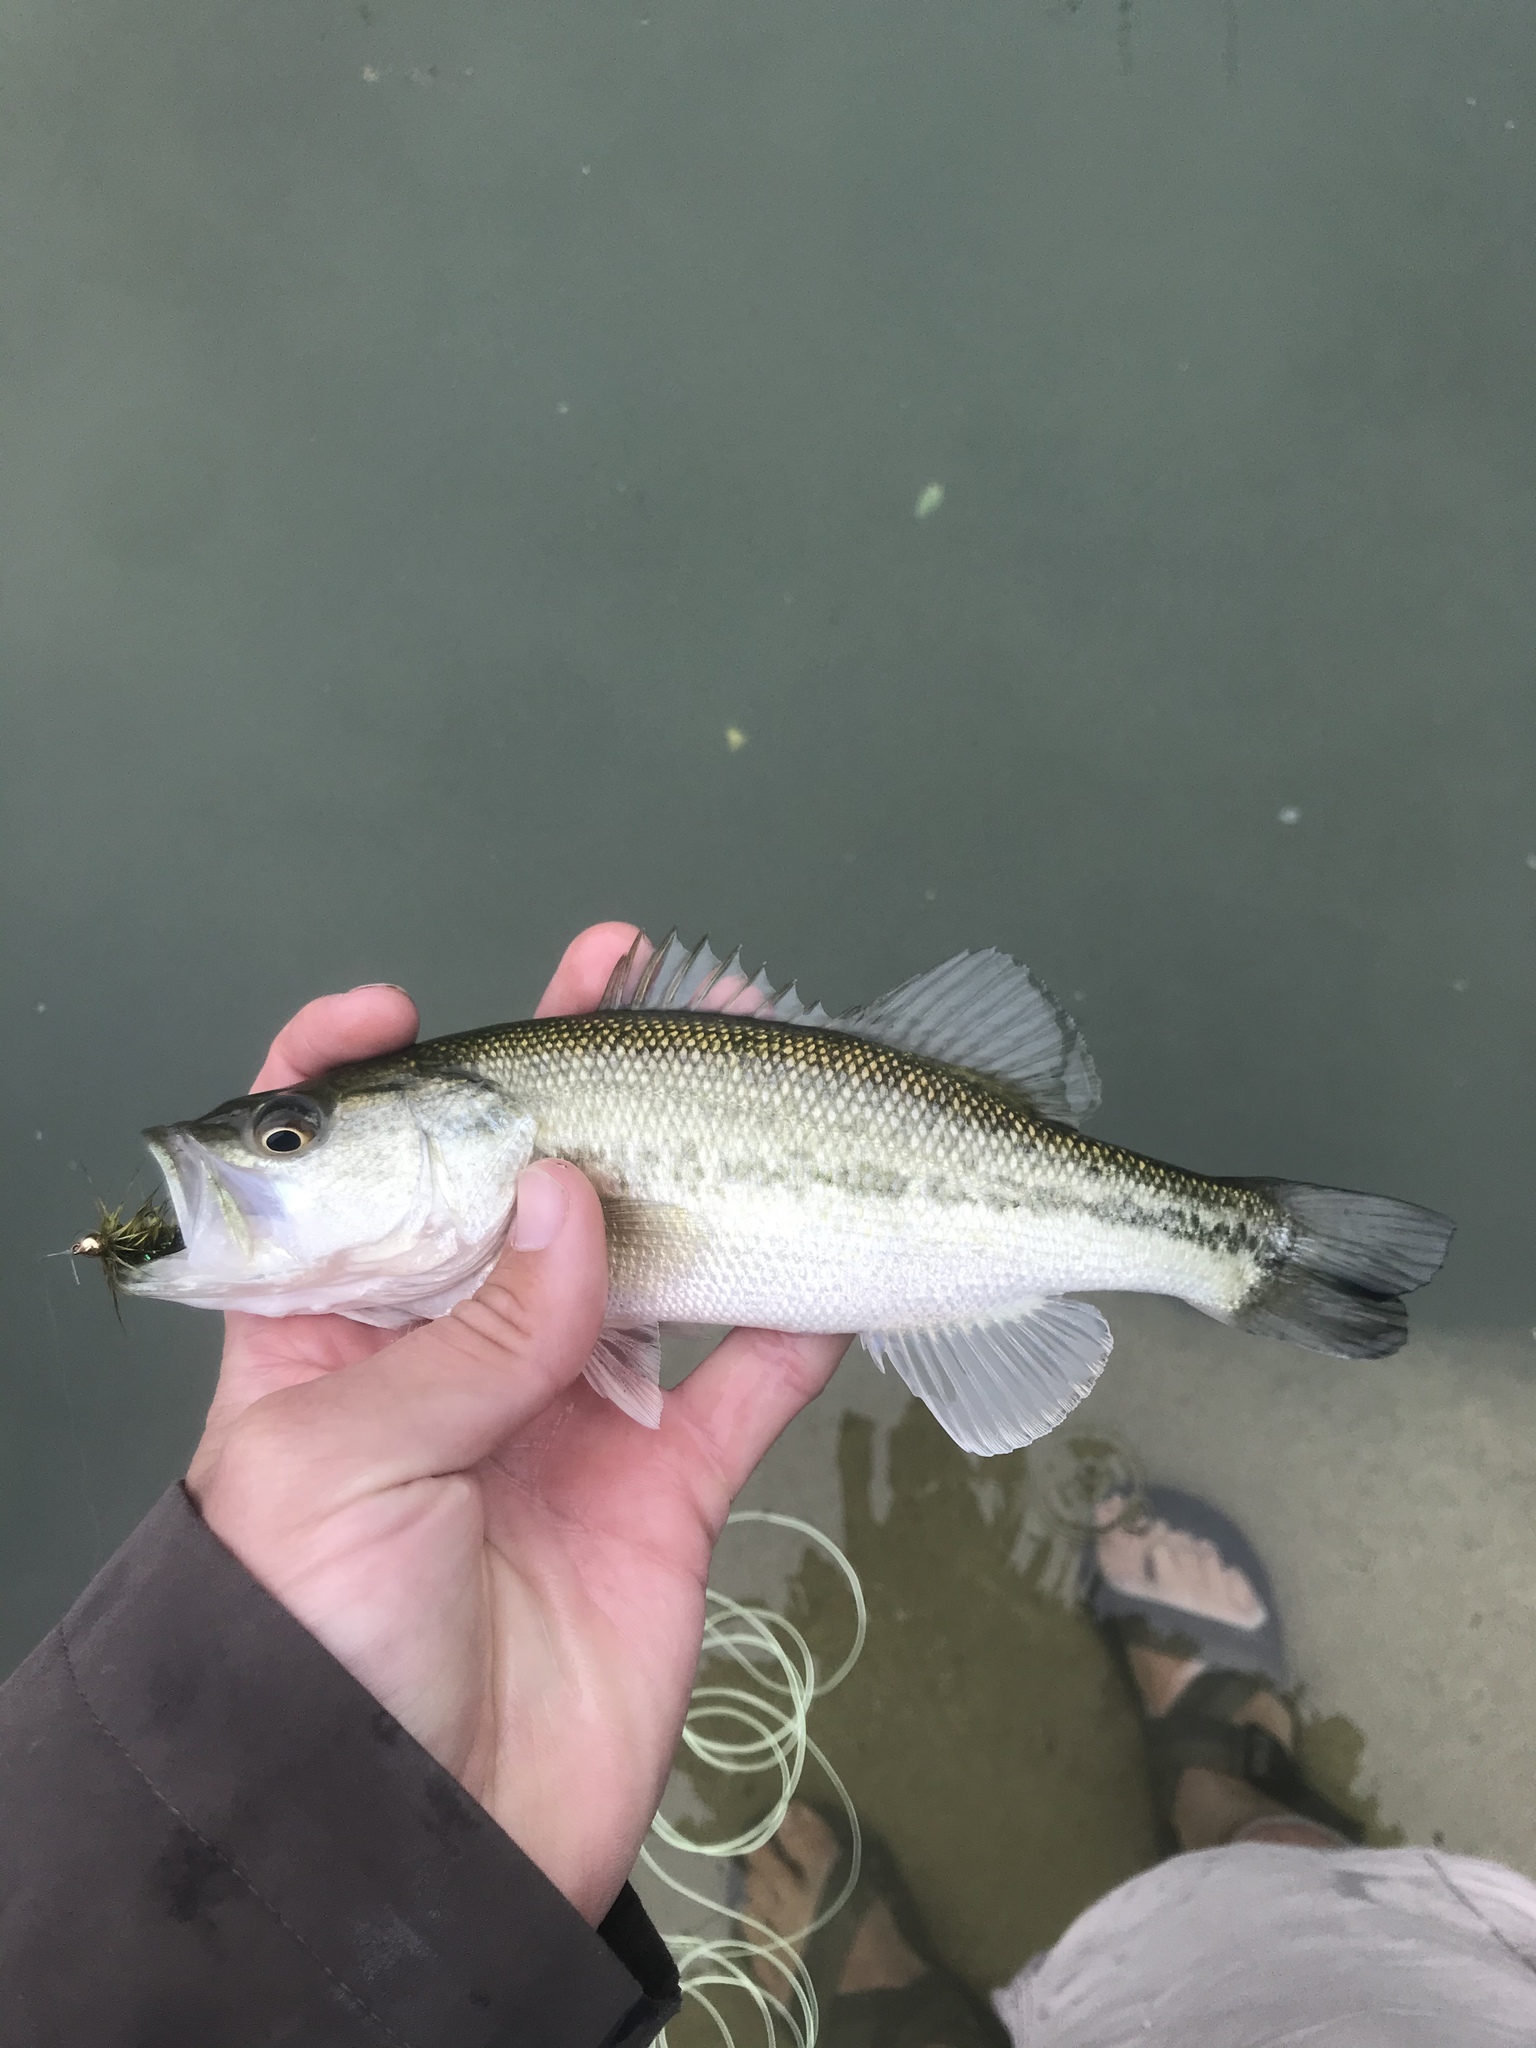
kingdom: Animalia
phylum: Chordata
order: Perciformes
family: Centrarchidae
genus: Micropterus
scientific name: Micropterus
